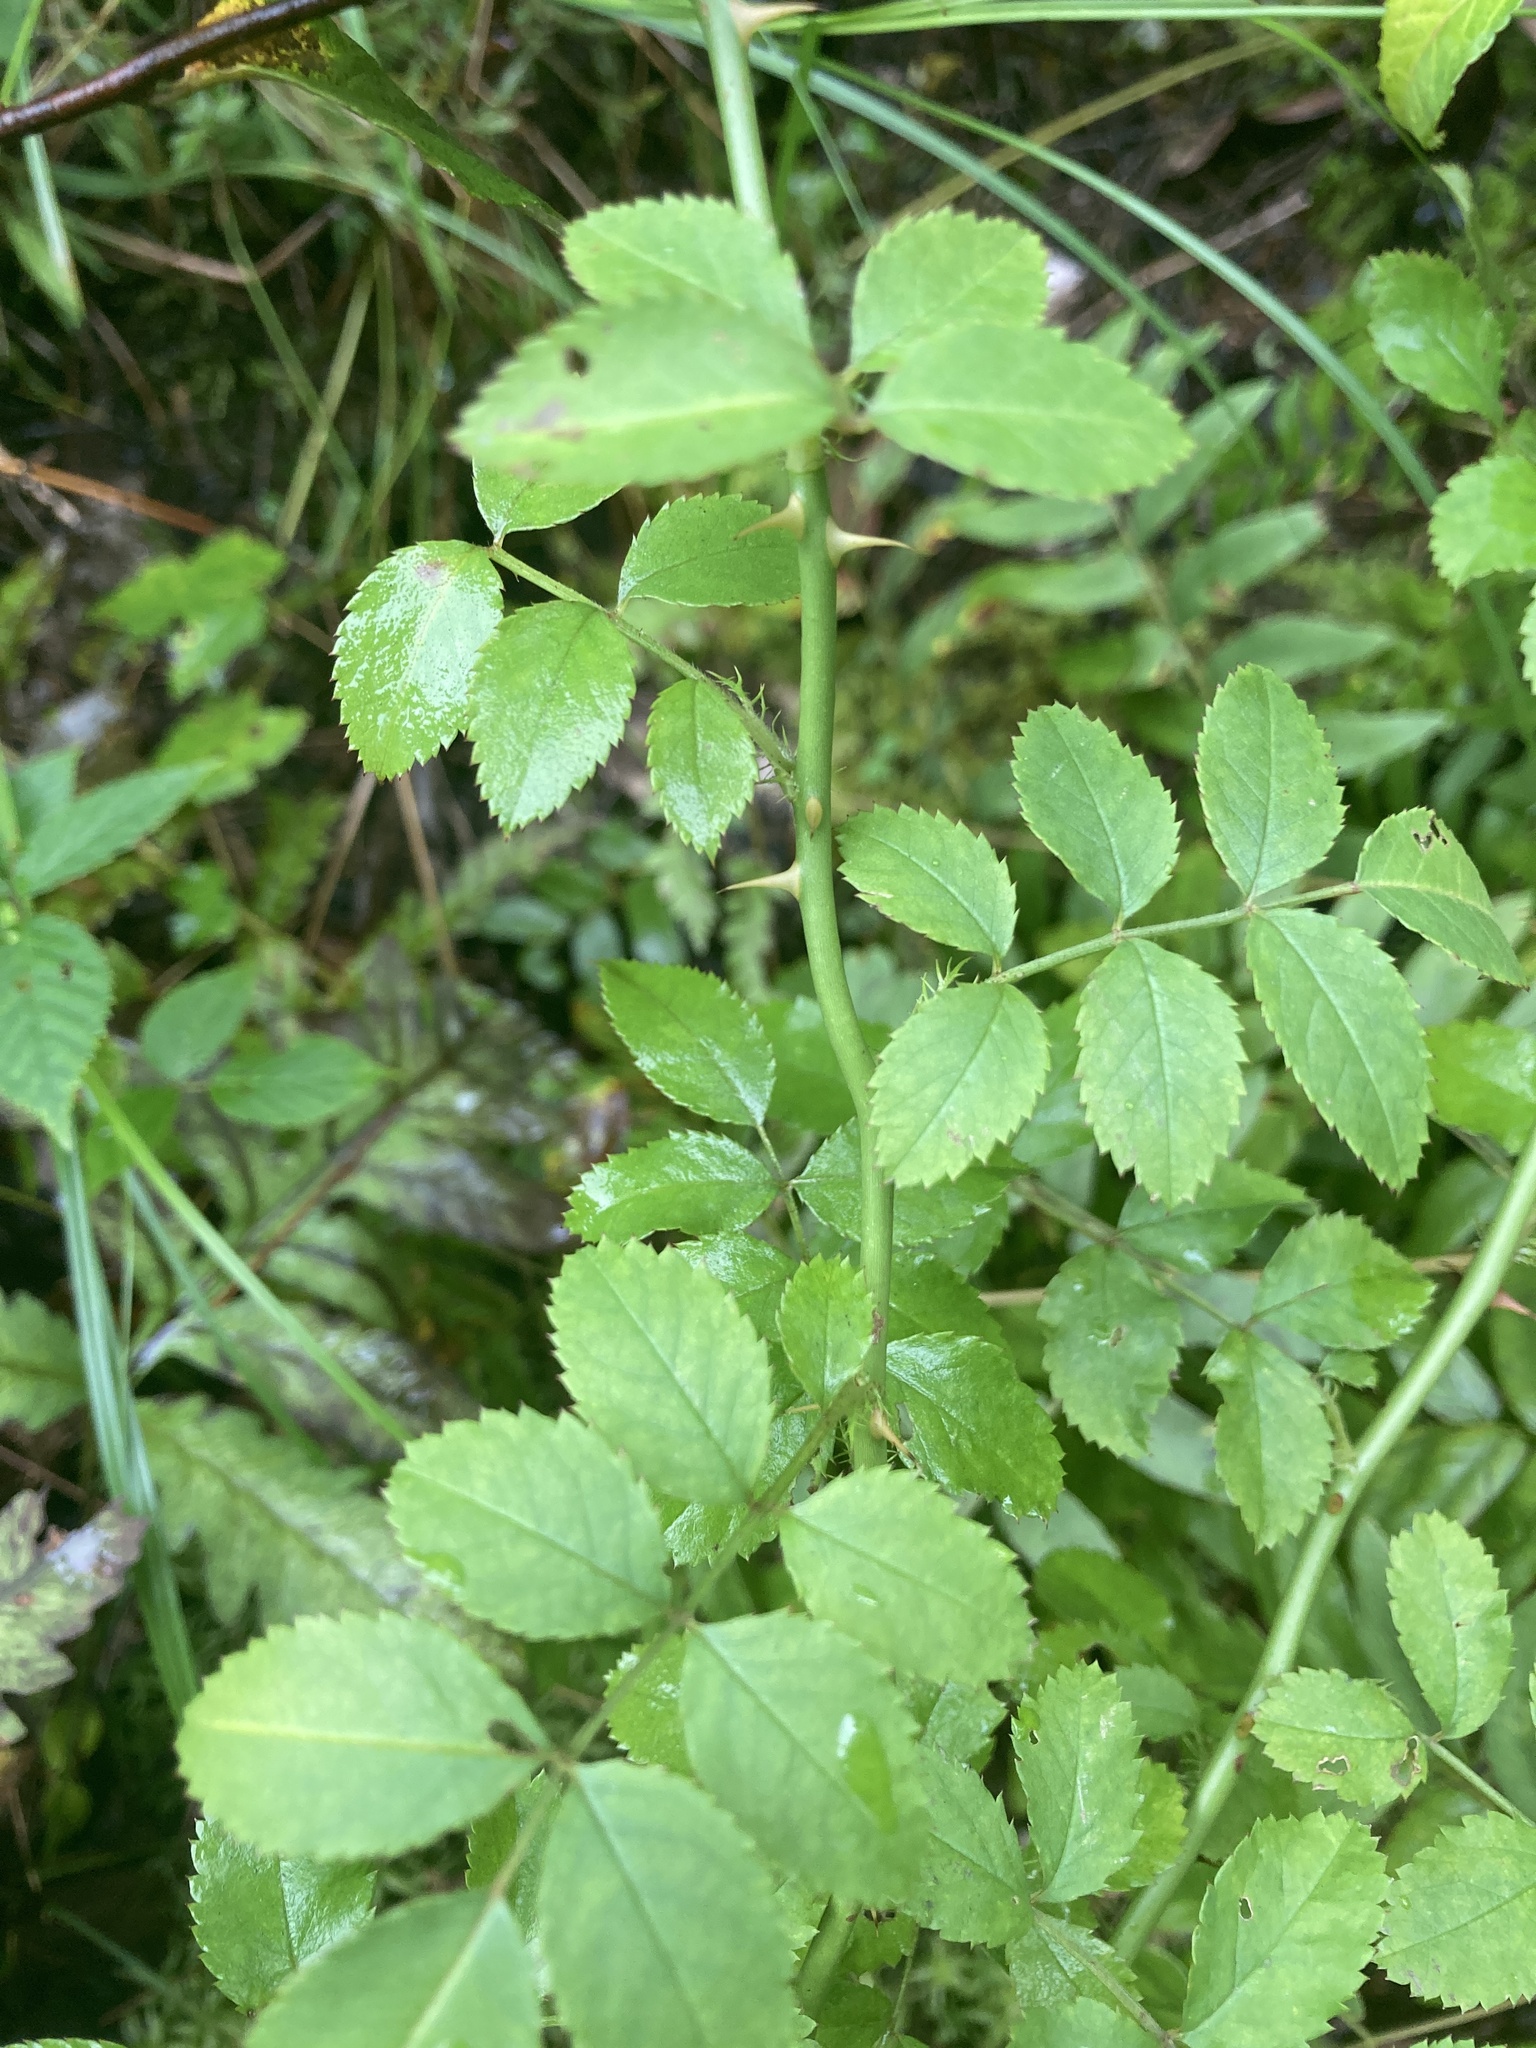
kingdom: Plantae
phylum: Tracheophyta
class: Magnoliopsida
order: Rosales
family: Rosaceae
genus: Rosa
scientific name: Rosa multiflora
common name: Multiflora rose
